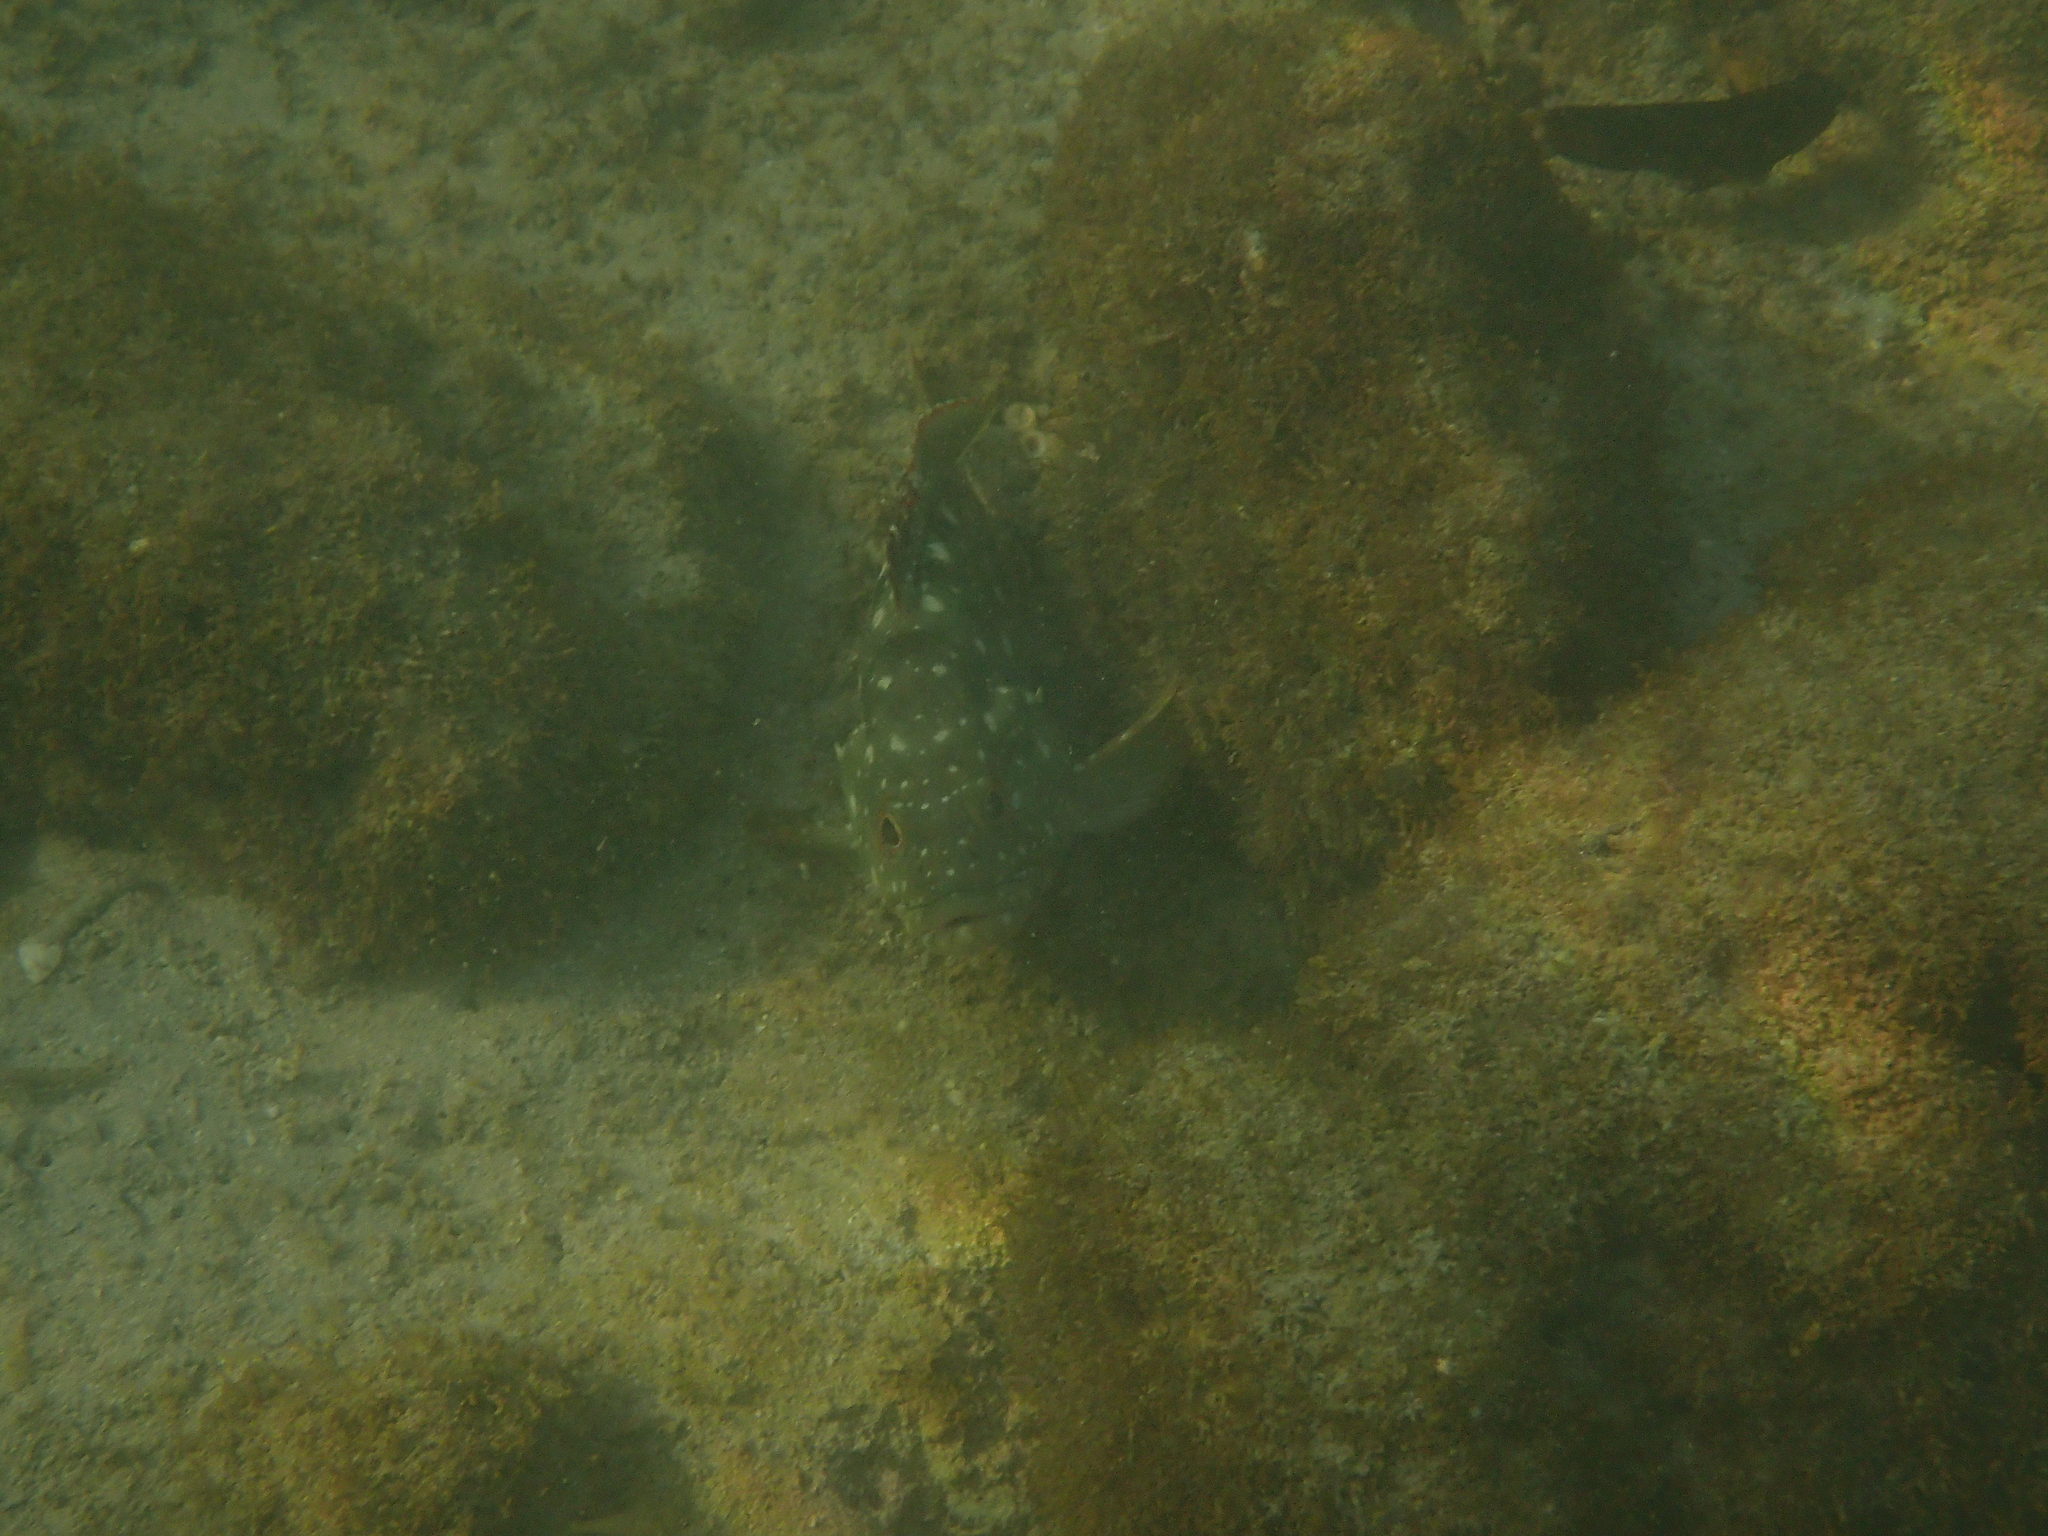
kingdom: Animalia
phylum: Chordata
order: Perciformes
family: Serranidae
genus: Epinephelus
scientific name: Epinephelus labriformis
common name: Flag cabrilla
